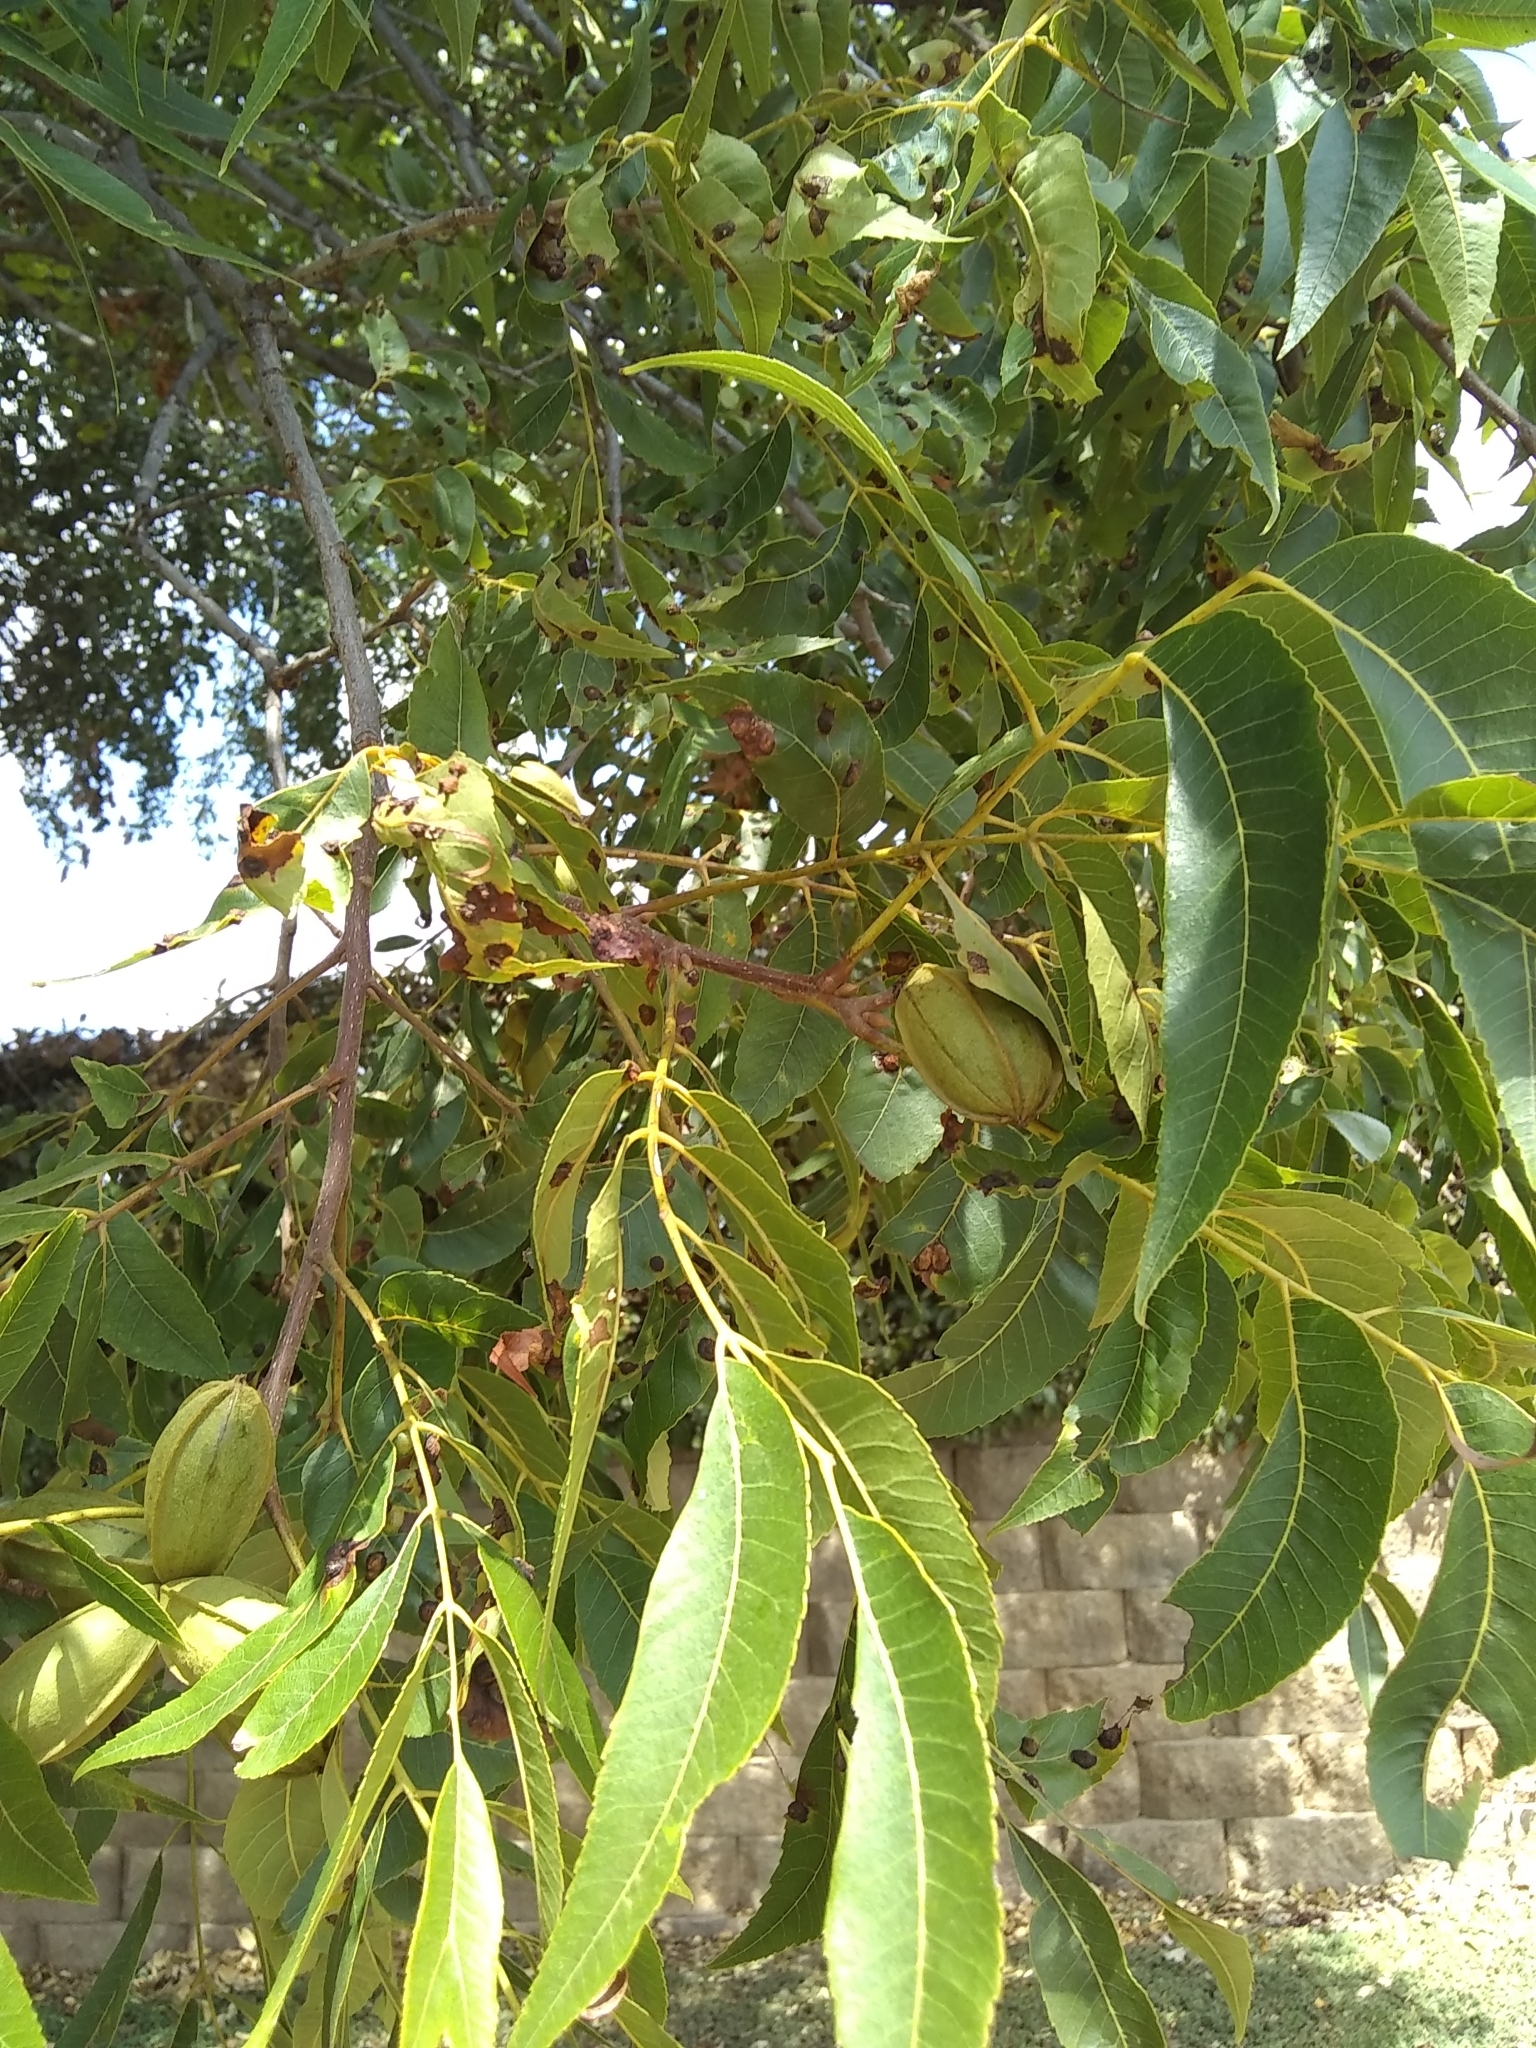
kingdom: Plantae
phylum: Tracheophyta
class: Magnoliopsida
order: Fagales
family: Juglandaceae
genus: Carya
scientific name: Carya illinoinensis
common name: Pecan
